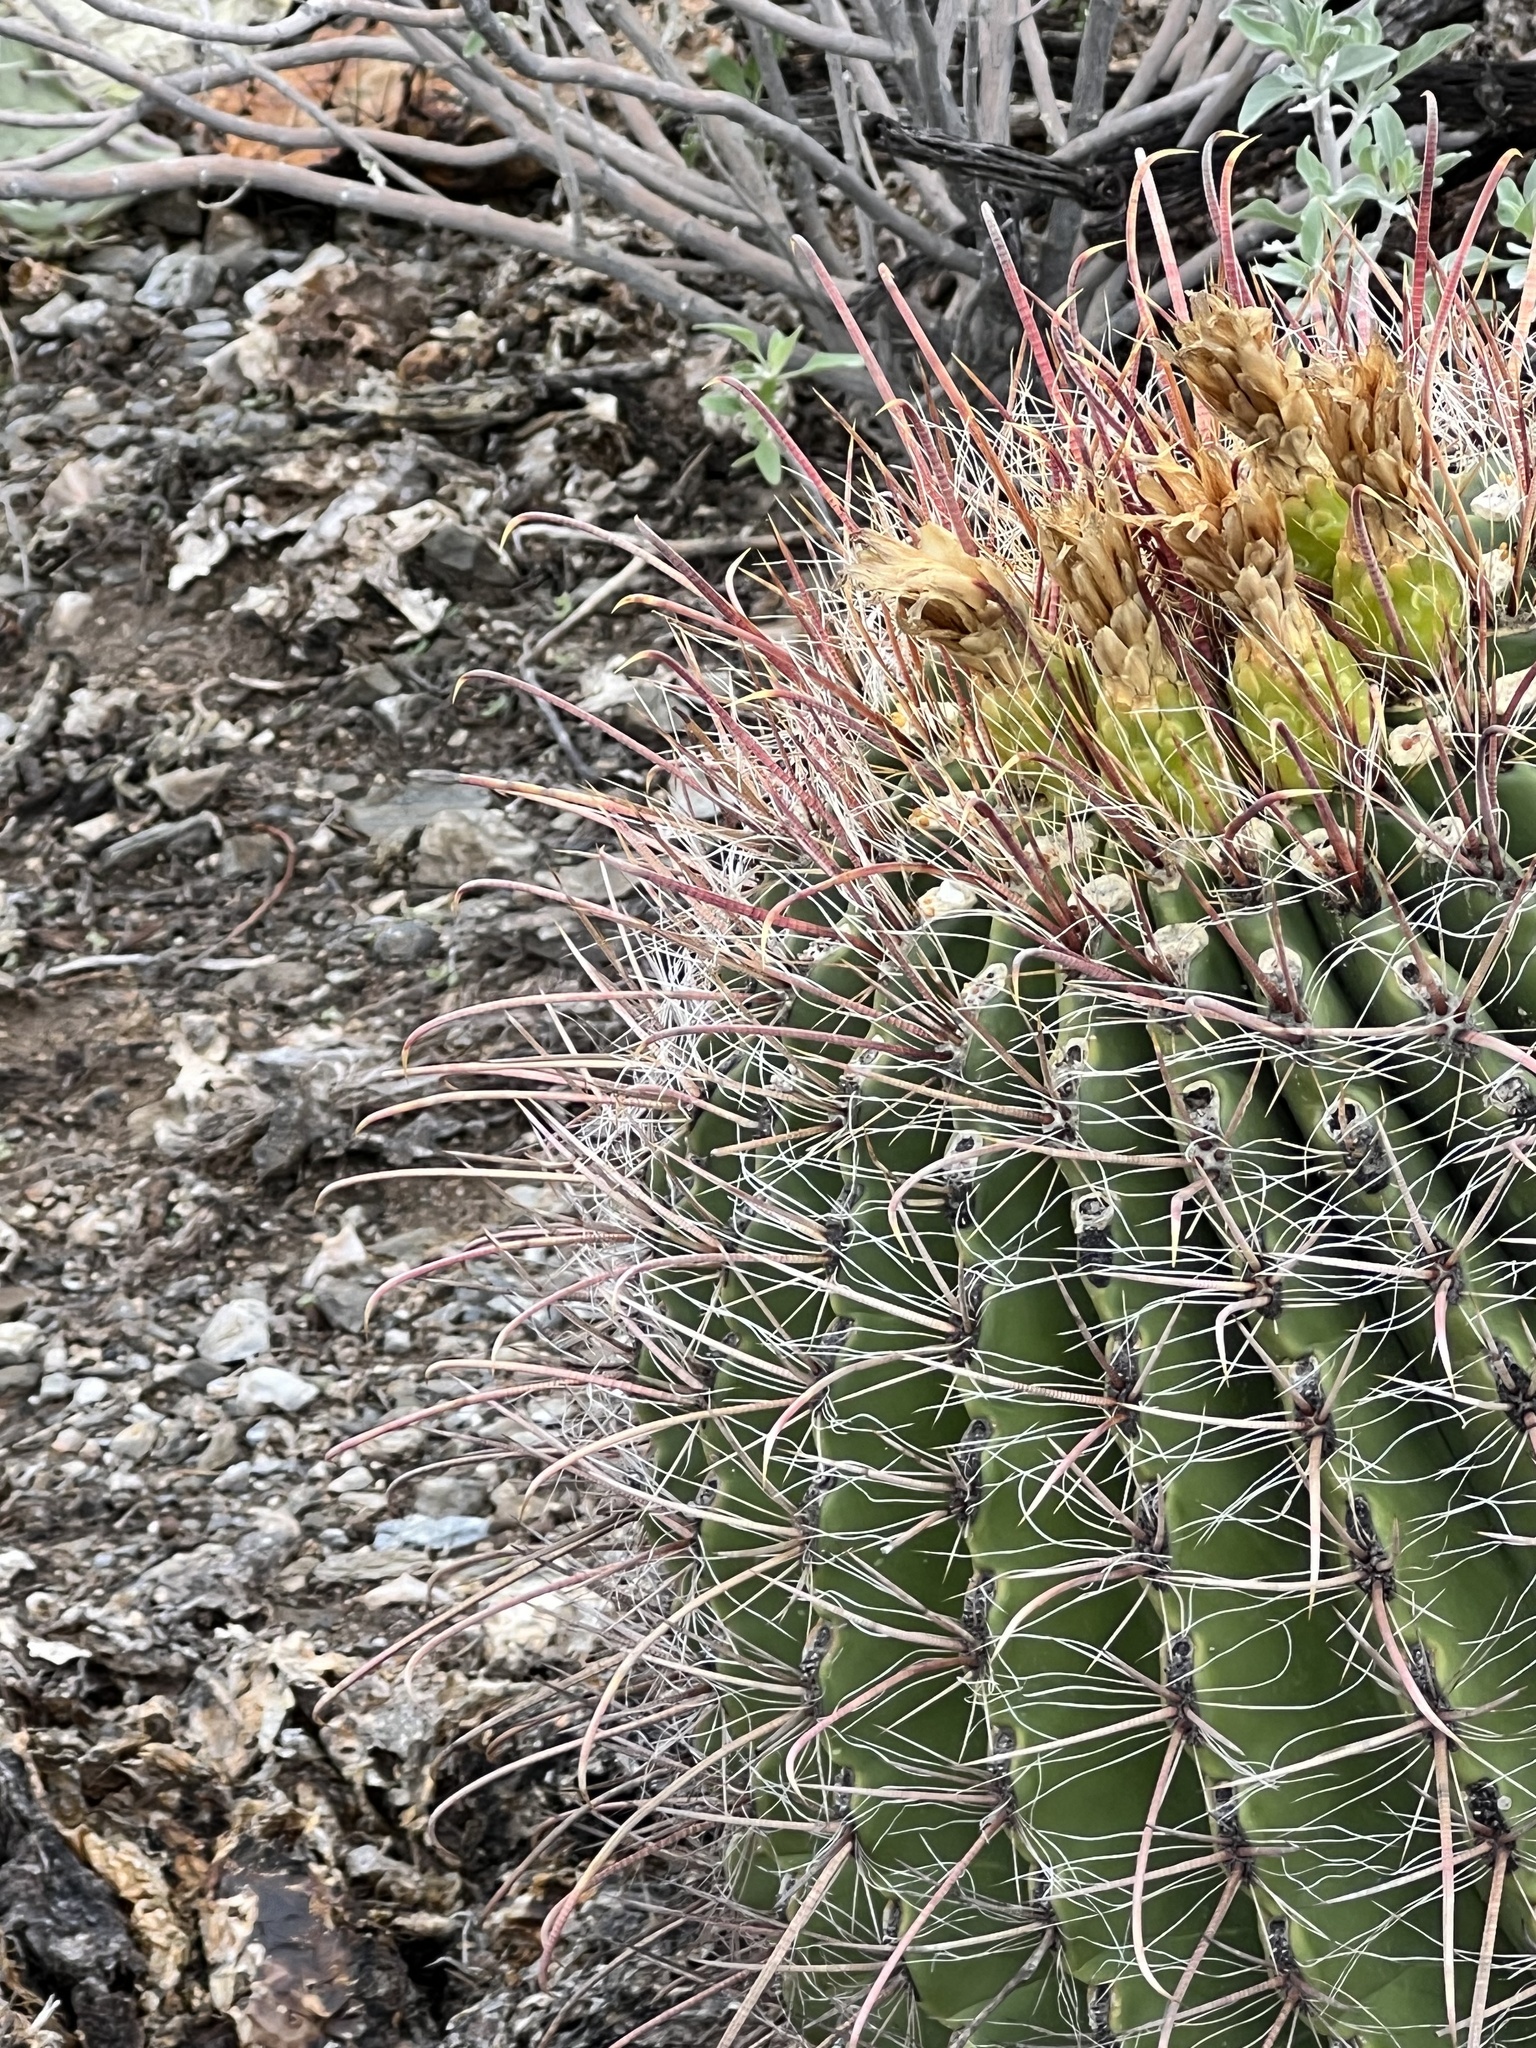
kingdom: Plantae
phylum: Tracheophyta
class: Magnoliopsida
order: Caryophyllales
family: Cactaceae
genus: Ferocactus
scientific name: Ferocactus wislizeni
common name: Candy barrel cactus
